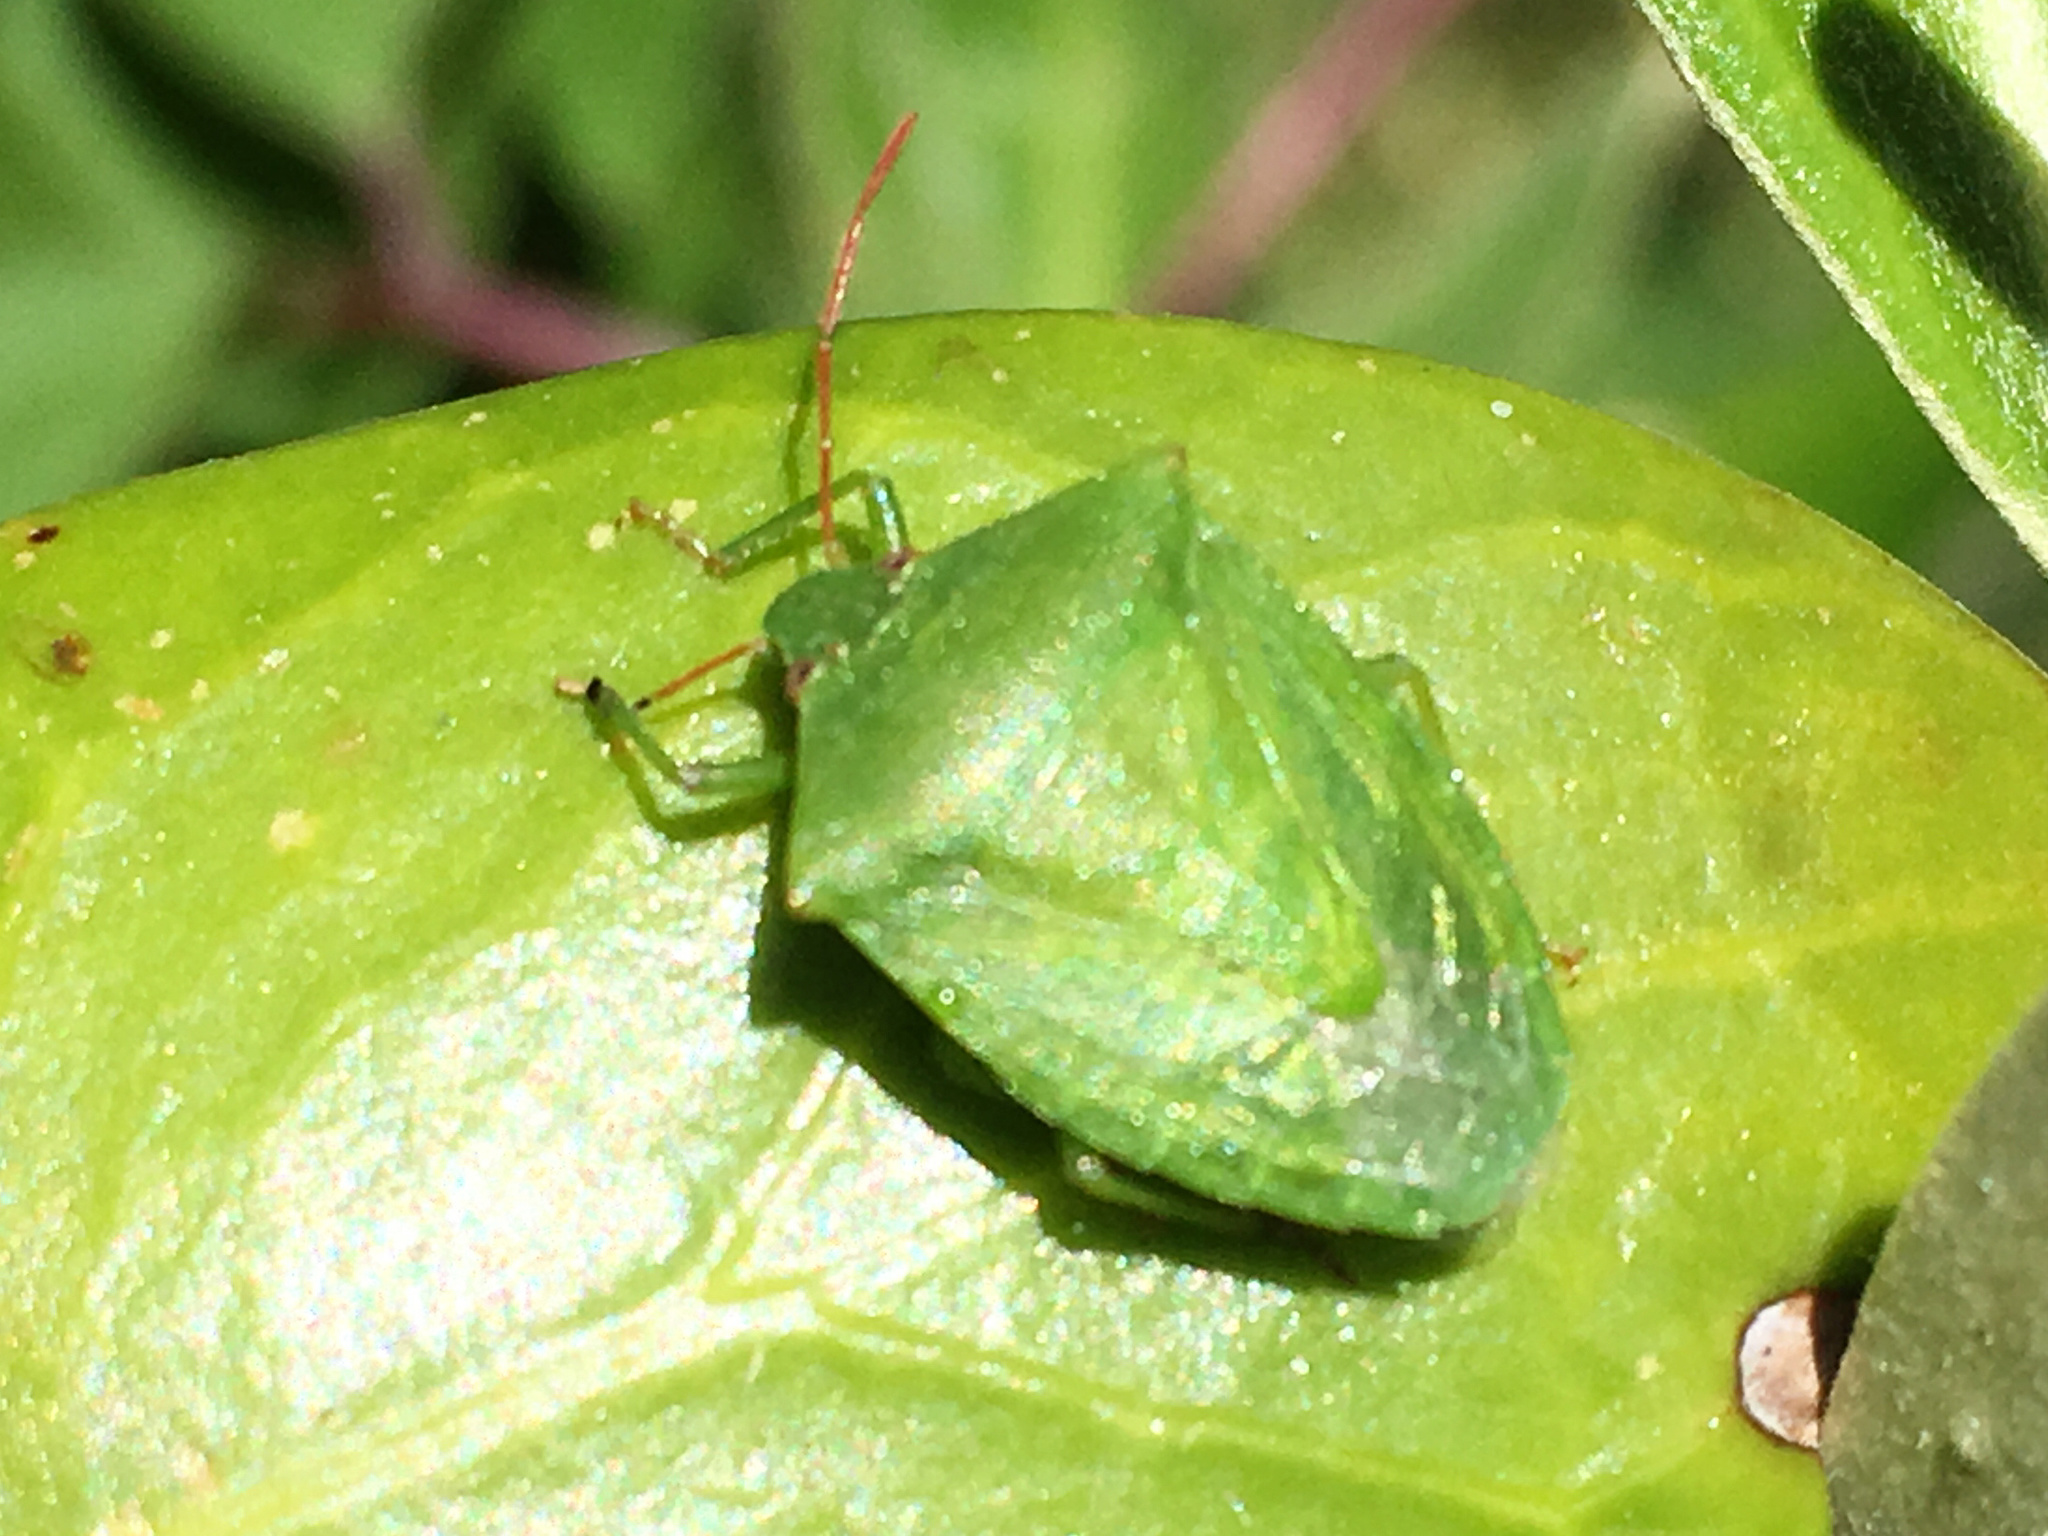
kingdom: Animalia
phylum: Arthropoda
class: Insecta
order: Hemiptera
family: Pentatomidae
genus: Cuspicona
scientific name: Cuspicona simplex
